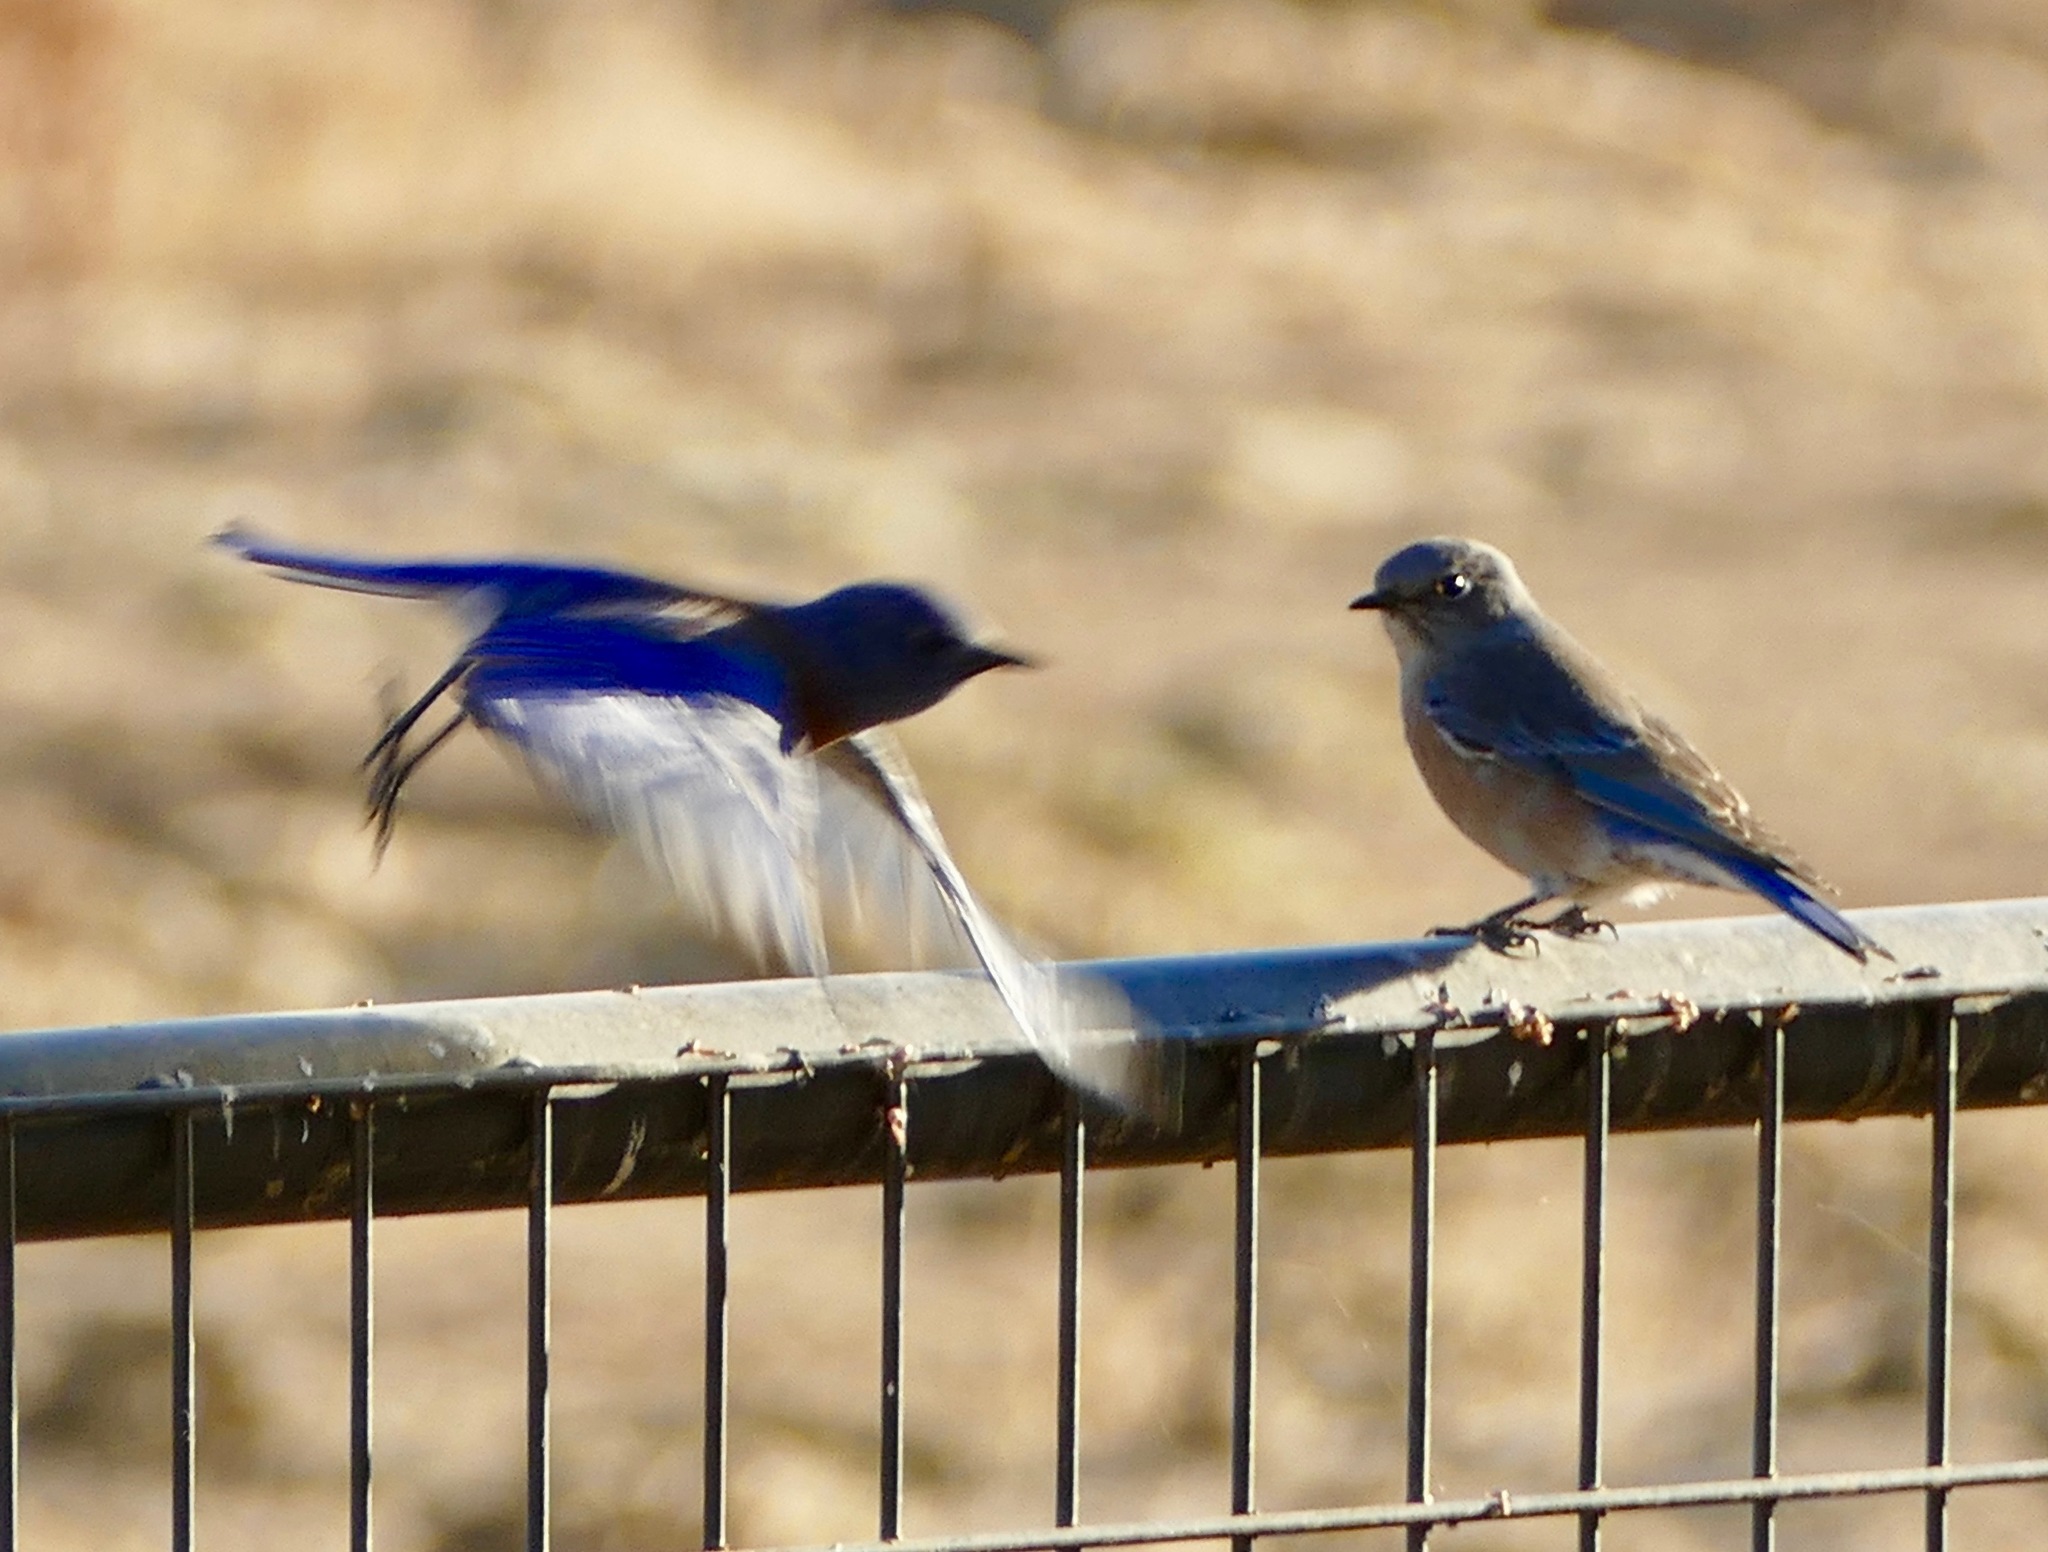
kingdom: Animalia
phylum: Chordata
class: Aves
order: Passeriformes
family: Turdidae
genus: Sialia
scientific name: Sialia mexicana
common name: Western bluebird
